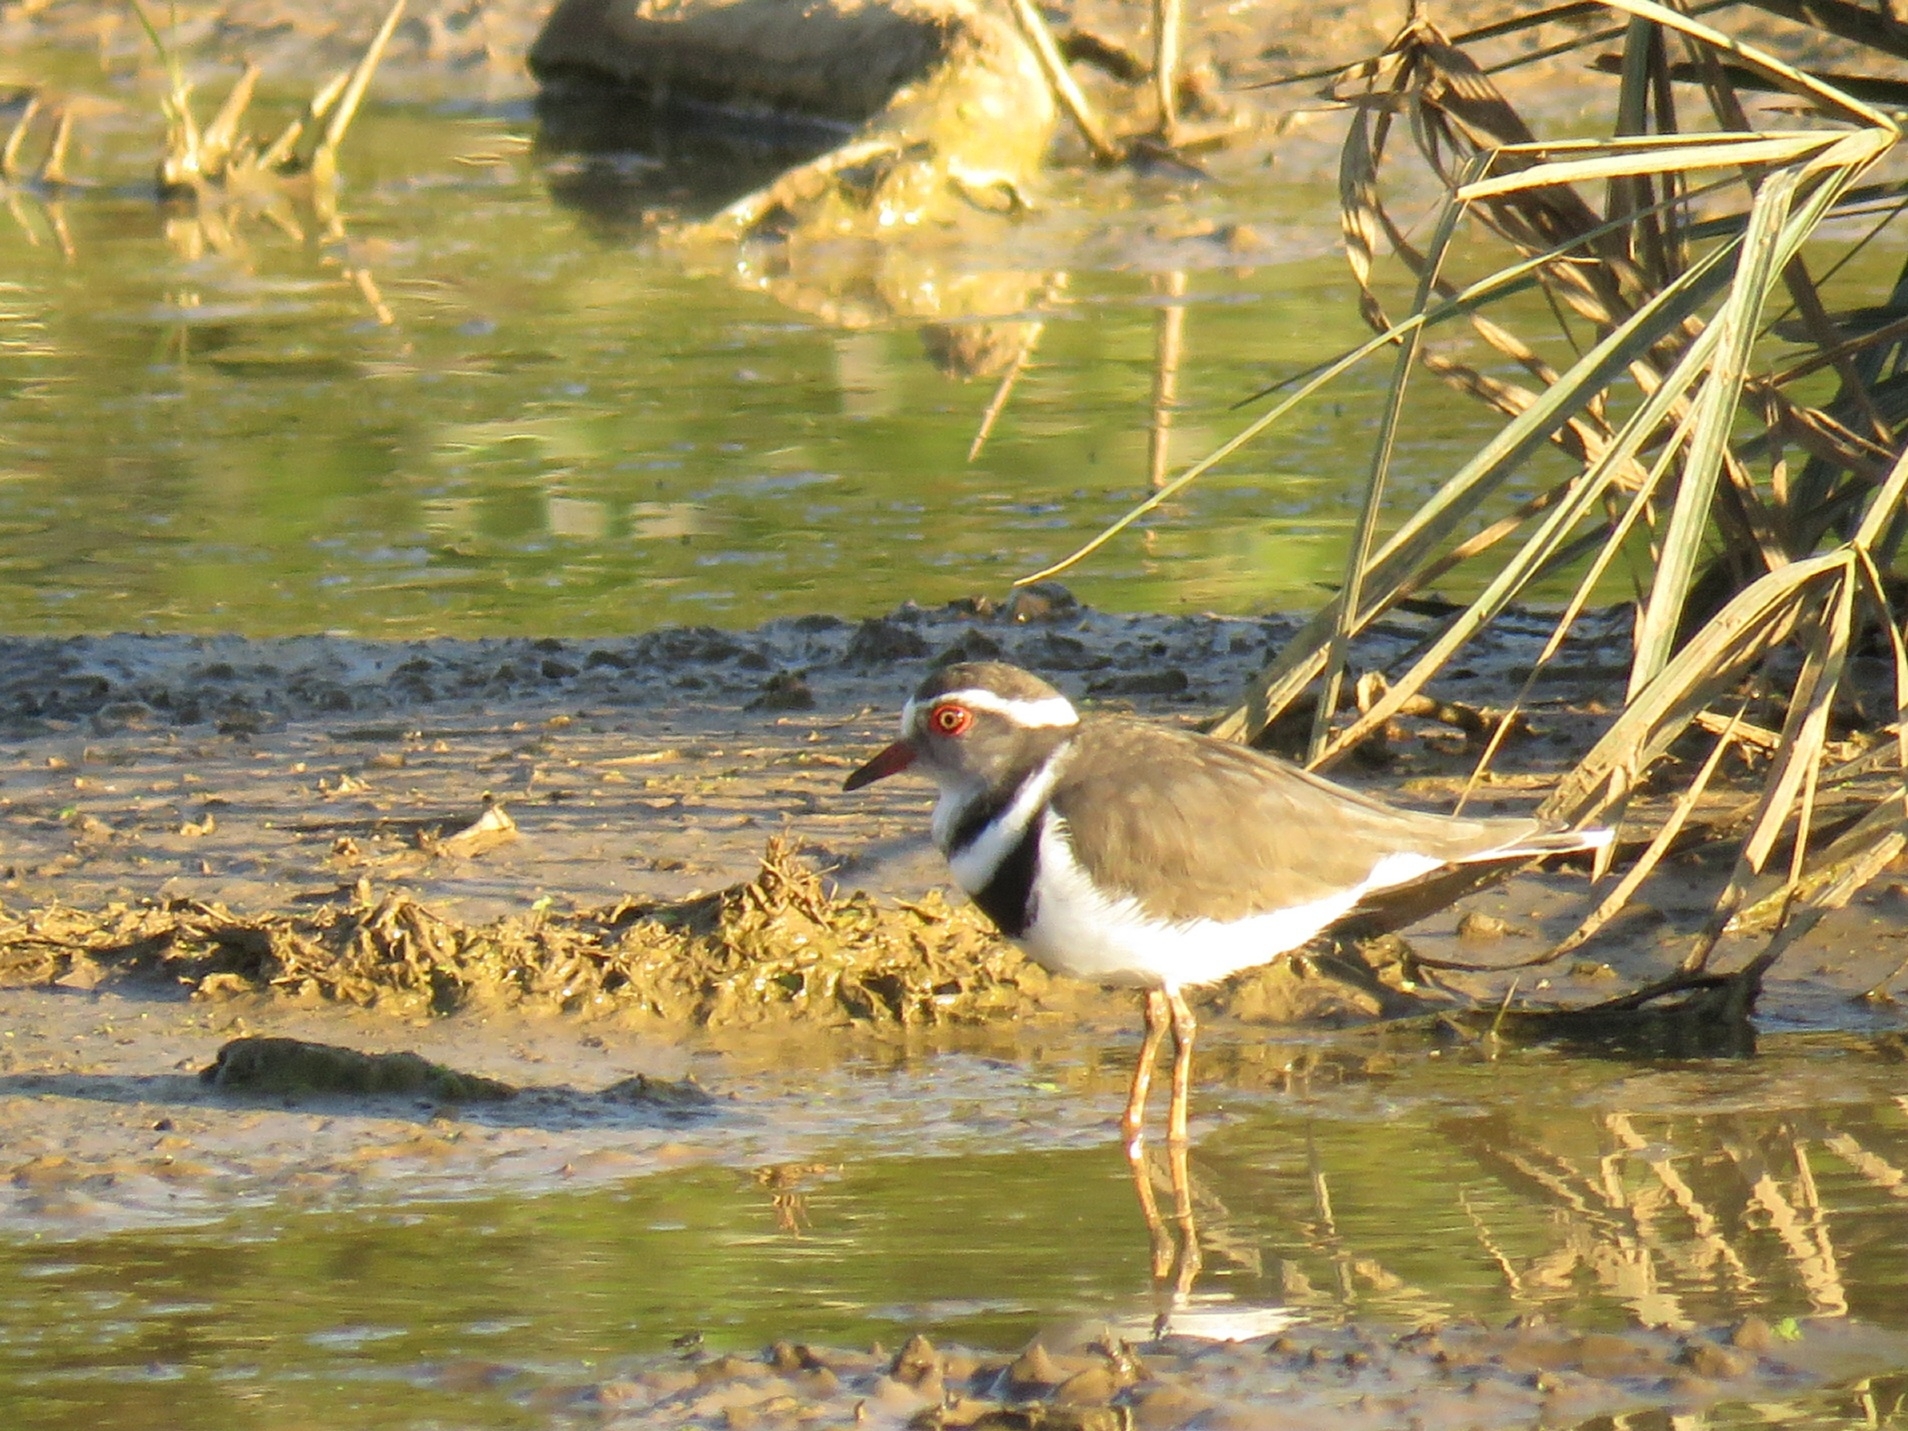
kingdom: Animalia
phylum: Chordata
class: Aves
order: Charadriiformes
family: Charadriidae
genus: Charadrius
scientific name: Charadrius tricollaris
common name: Three-banded plover
